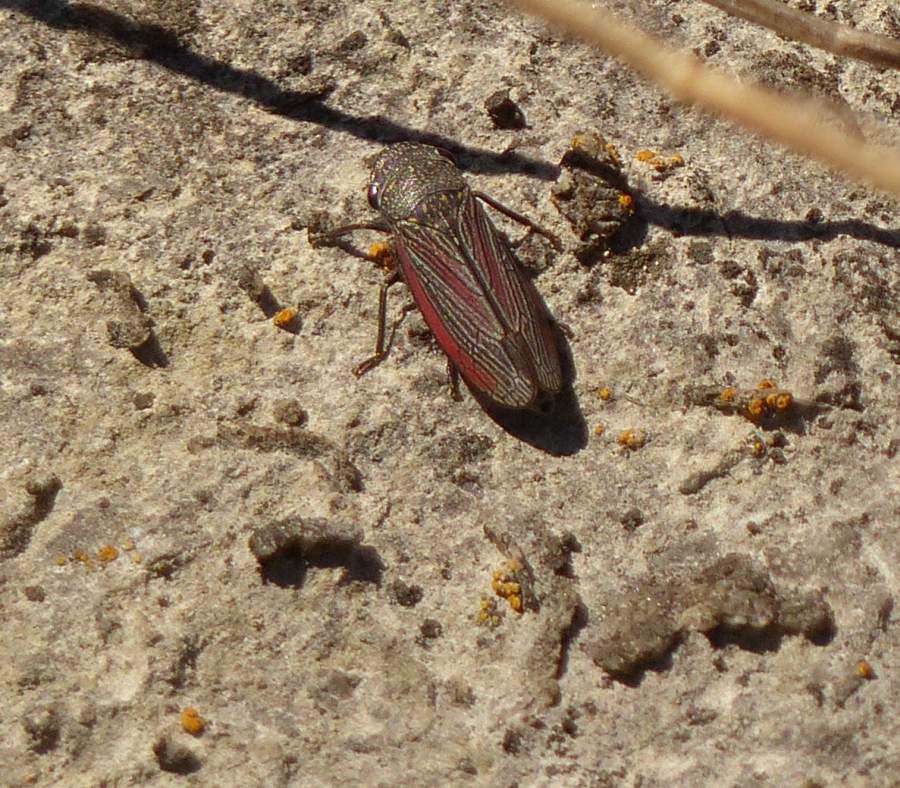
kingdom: Animalia
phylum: Arthropoda
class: Insecta
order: Hemiptera
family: Cicadellidae
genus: Cuerna
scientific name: Cuerna striata
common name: Striped leafhopper
